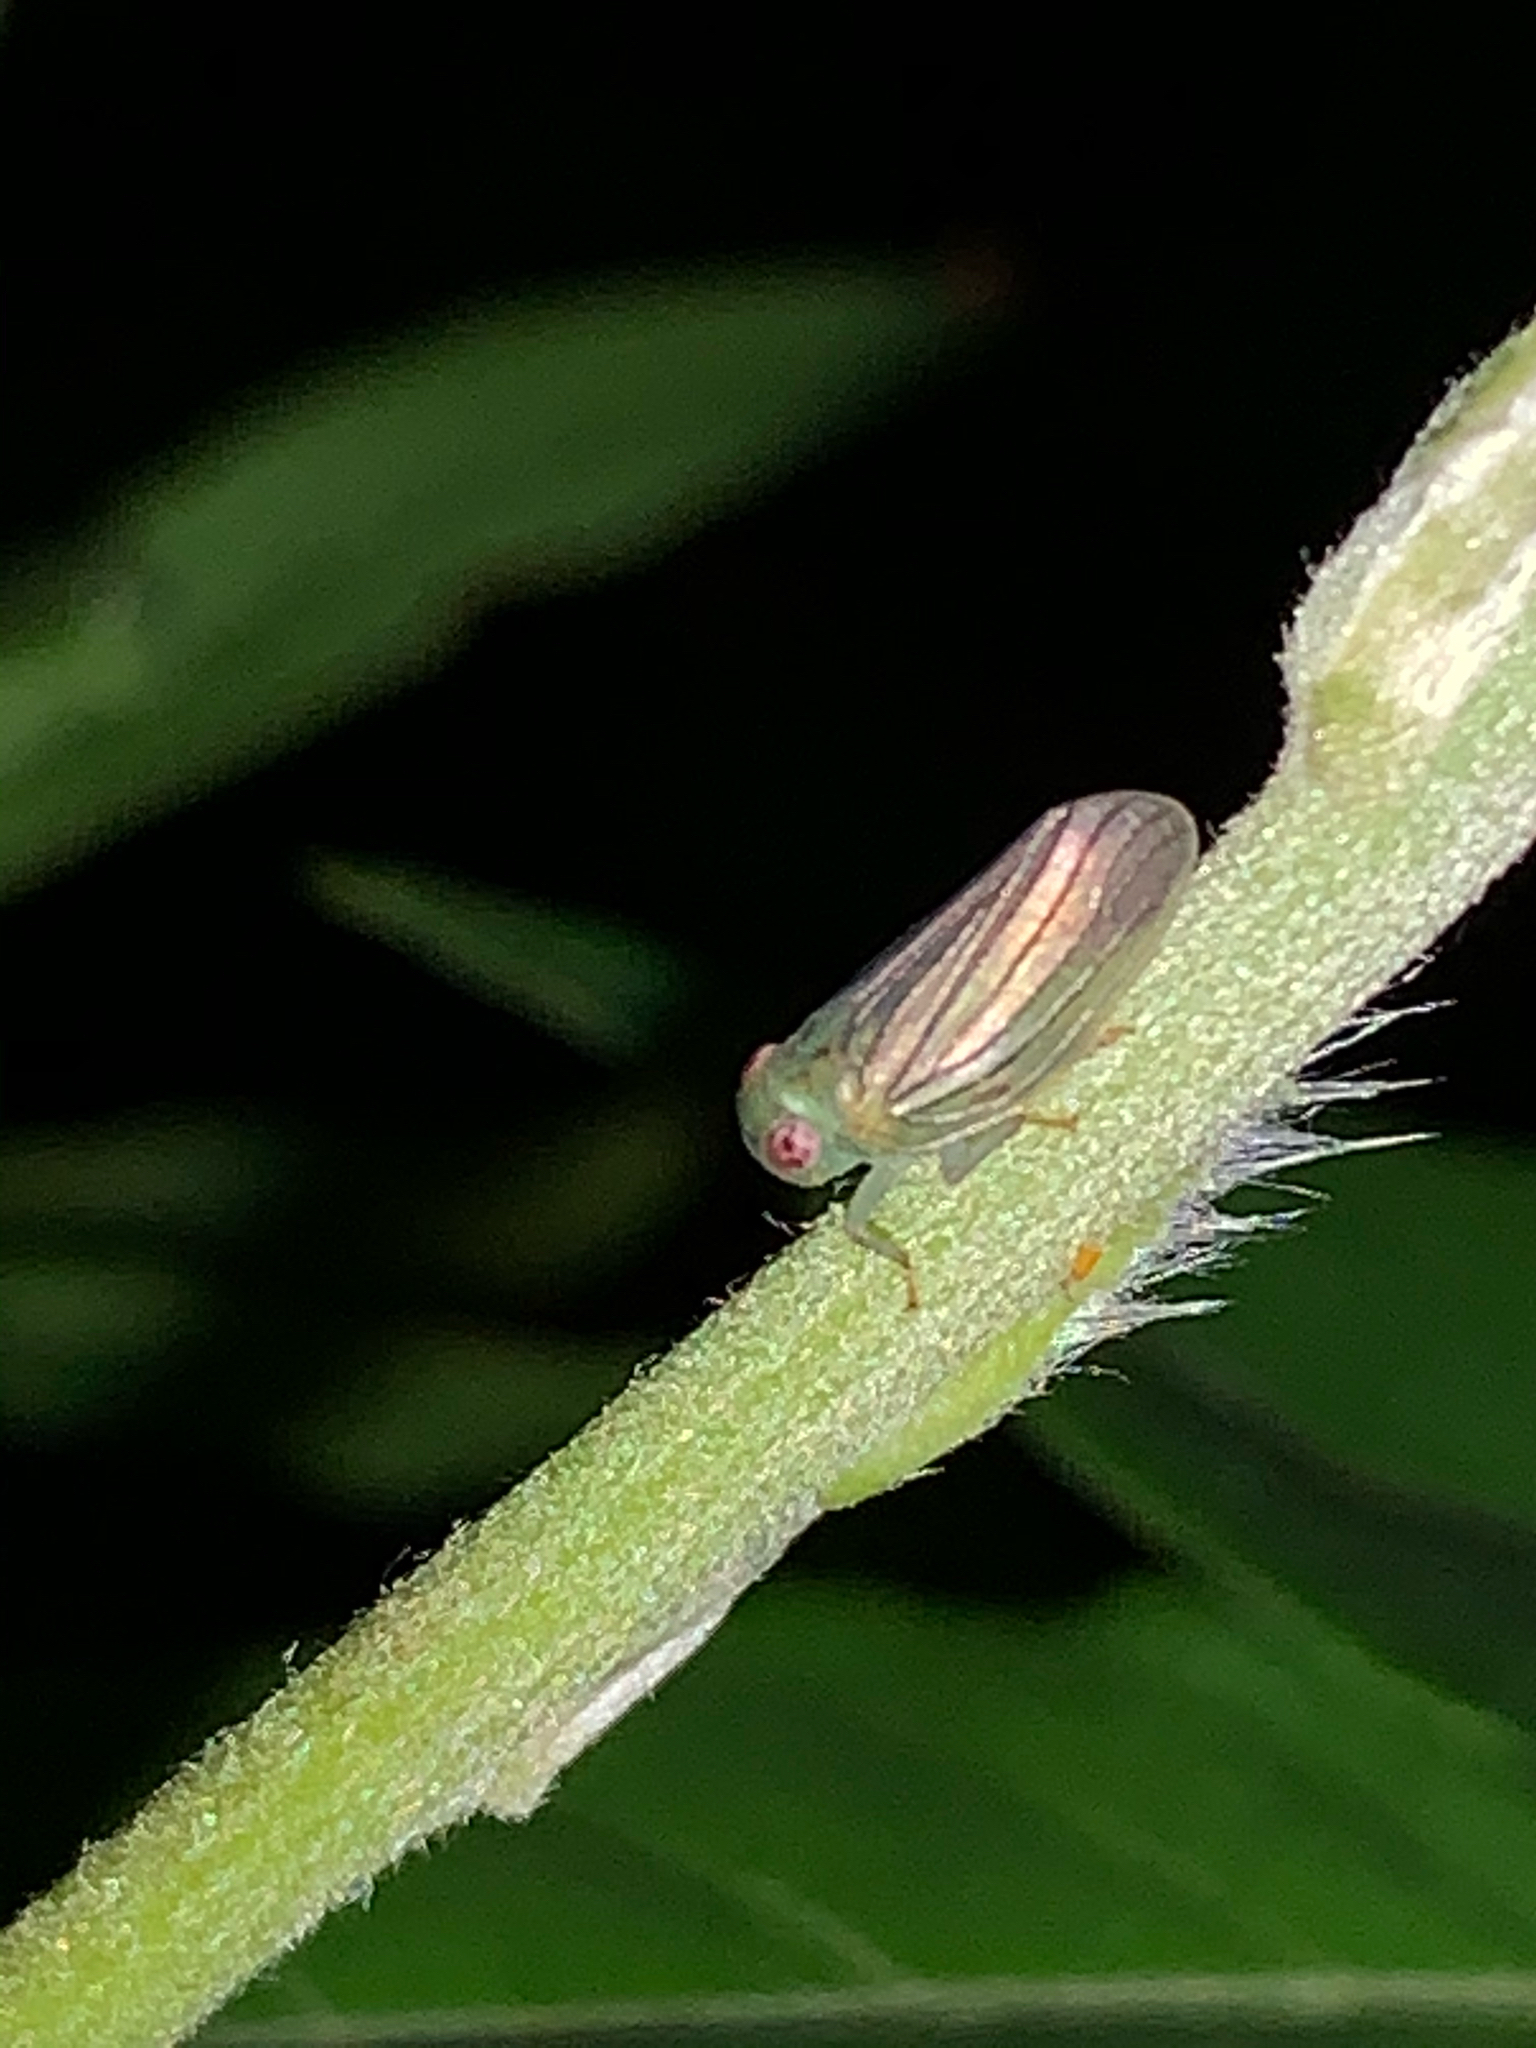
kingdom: Animalia
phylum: Arthropoda
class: Insecta
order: Hemiptera
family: Issidae
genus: Aplos
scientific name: Aplos simplex
